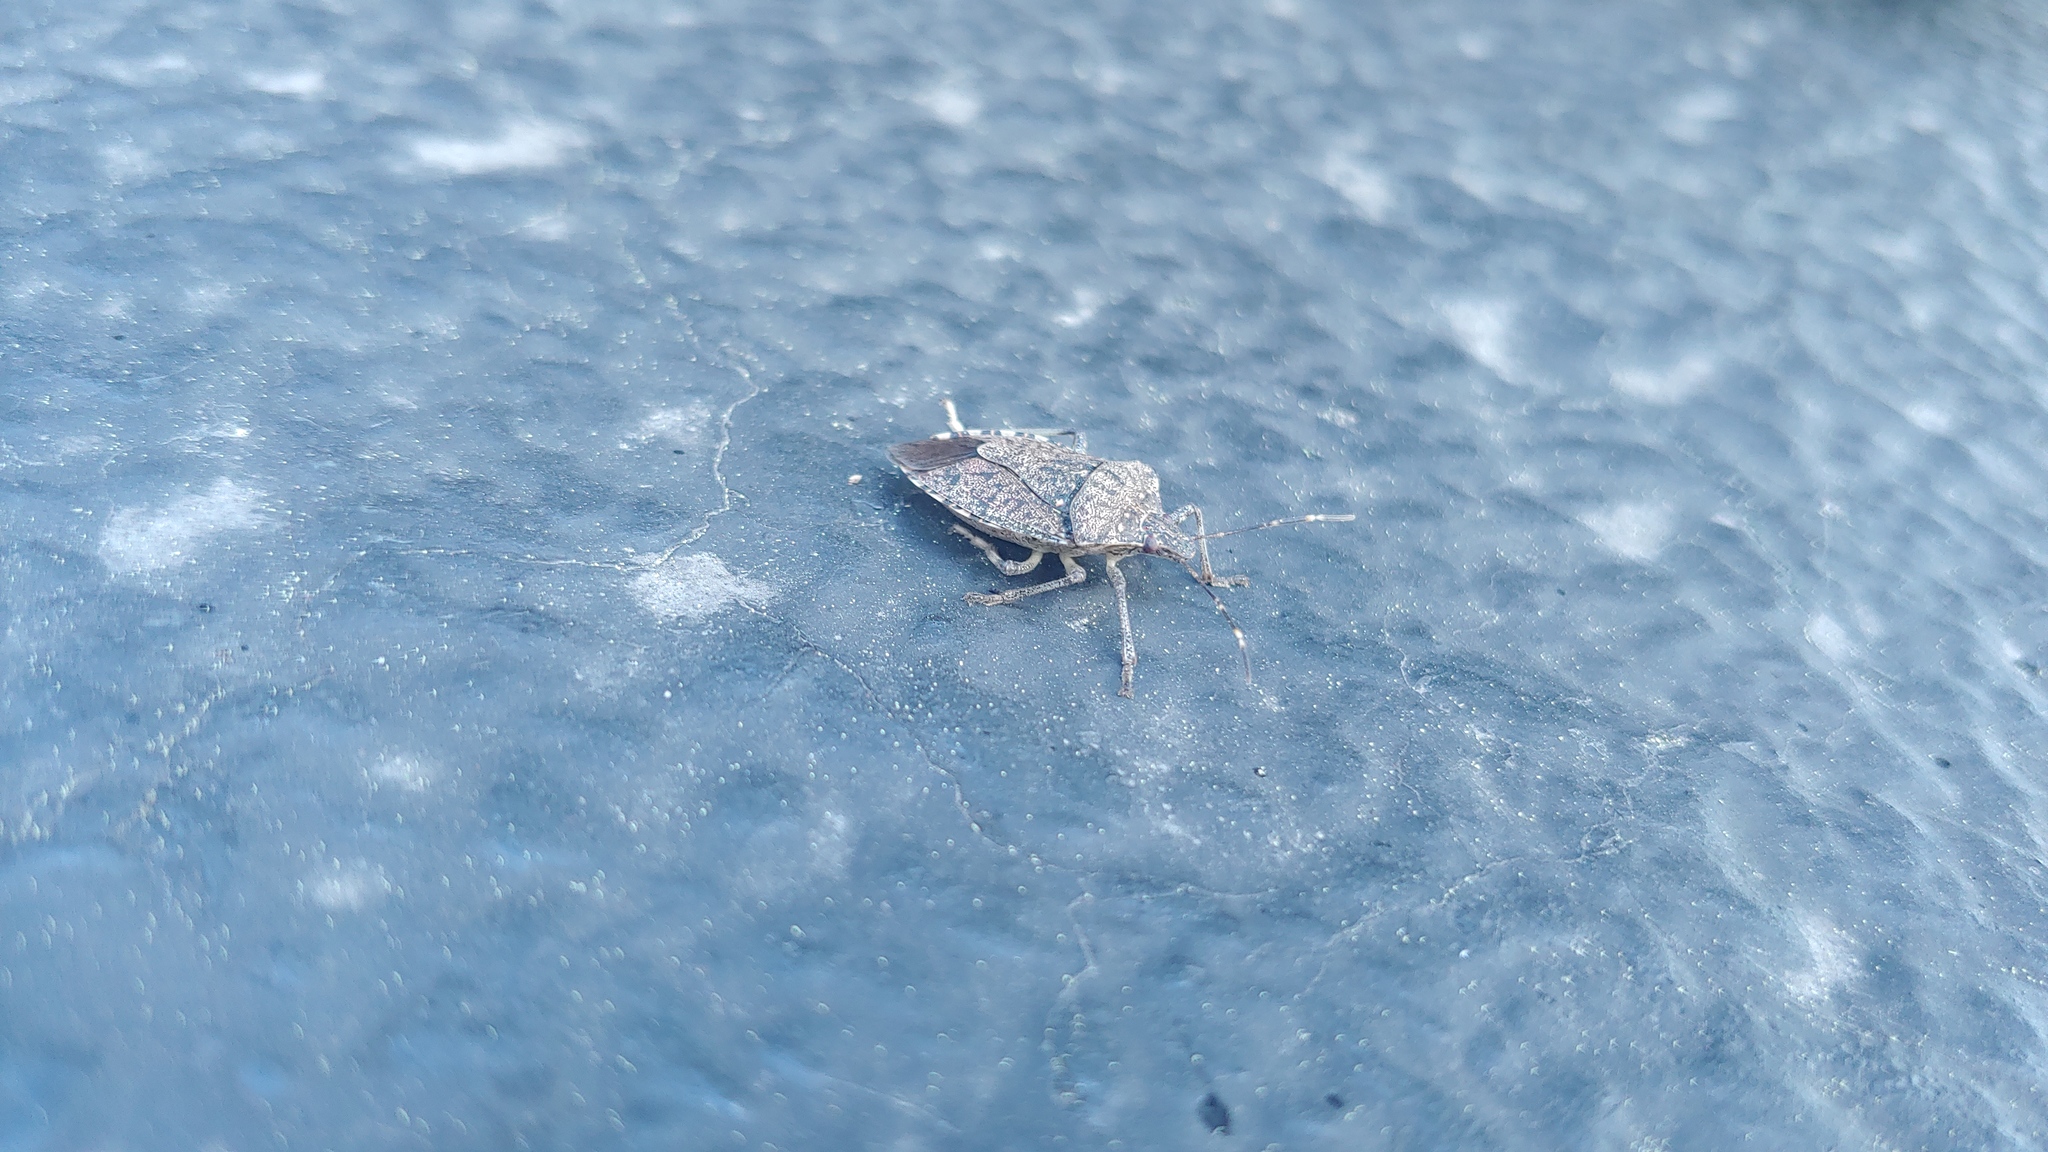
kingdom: Animalia
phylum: Arthropoda
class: Insecta
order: Hemiptera
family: Pentatomidae
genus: Halyomorpha
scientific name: Halyomorpha halys
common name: Brown marmorated stink bug
